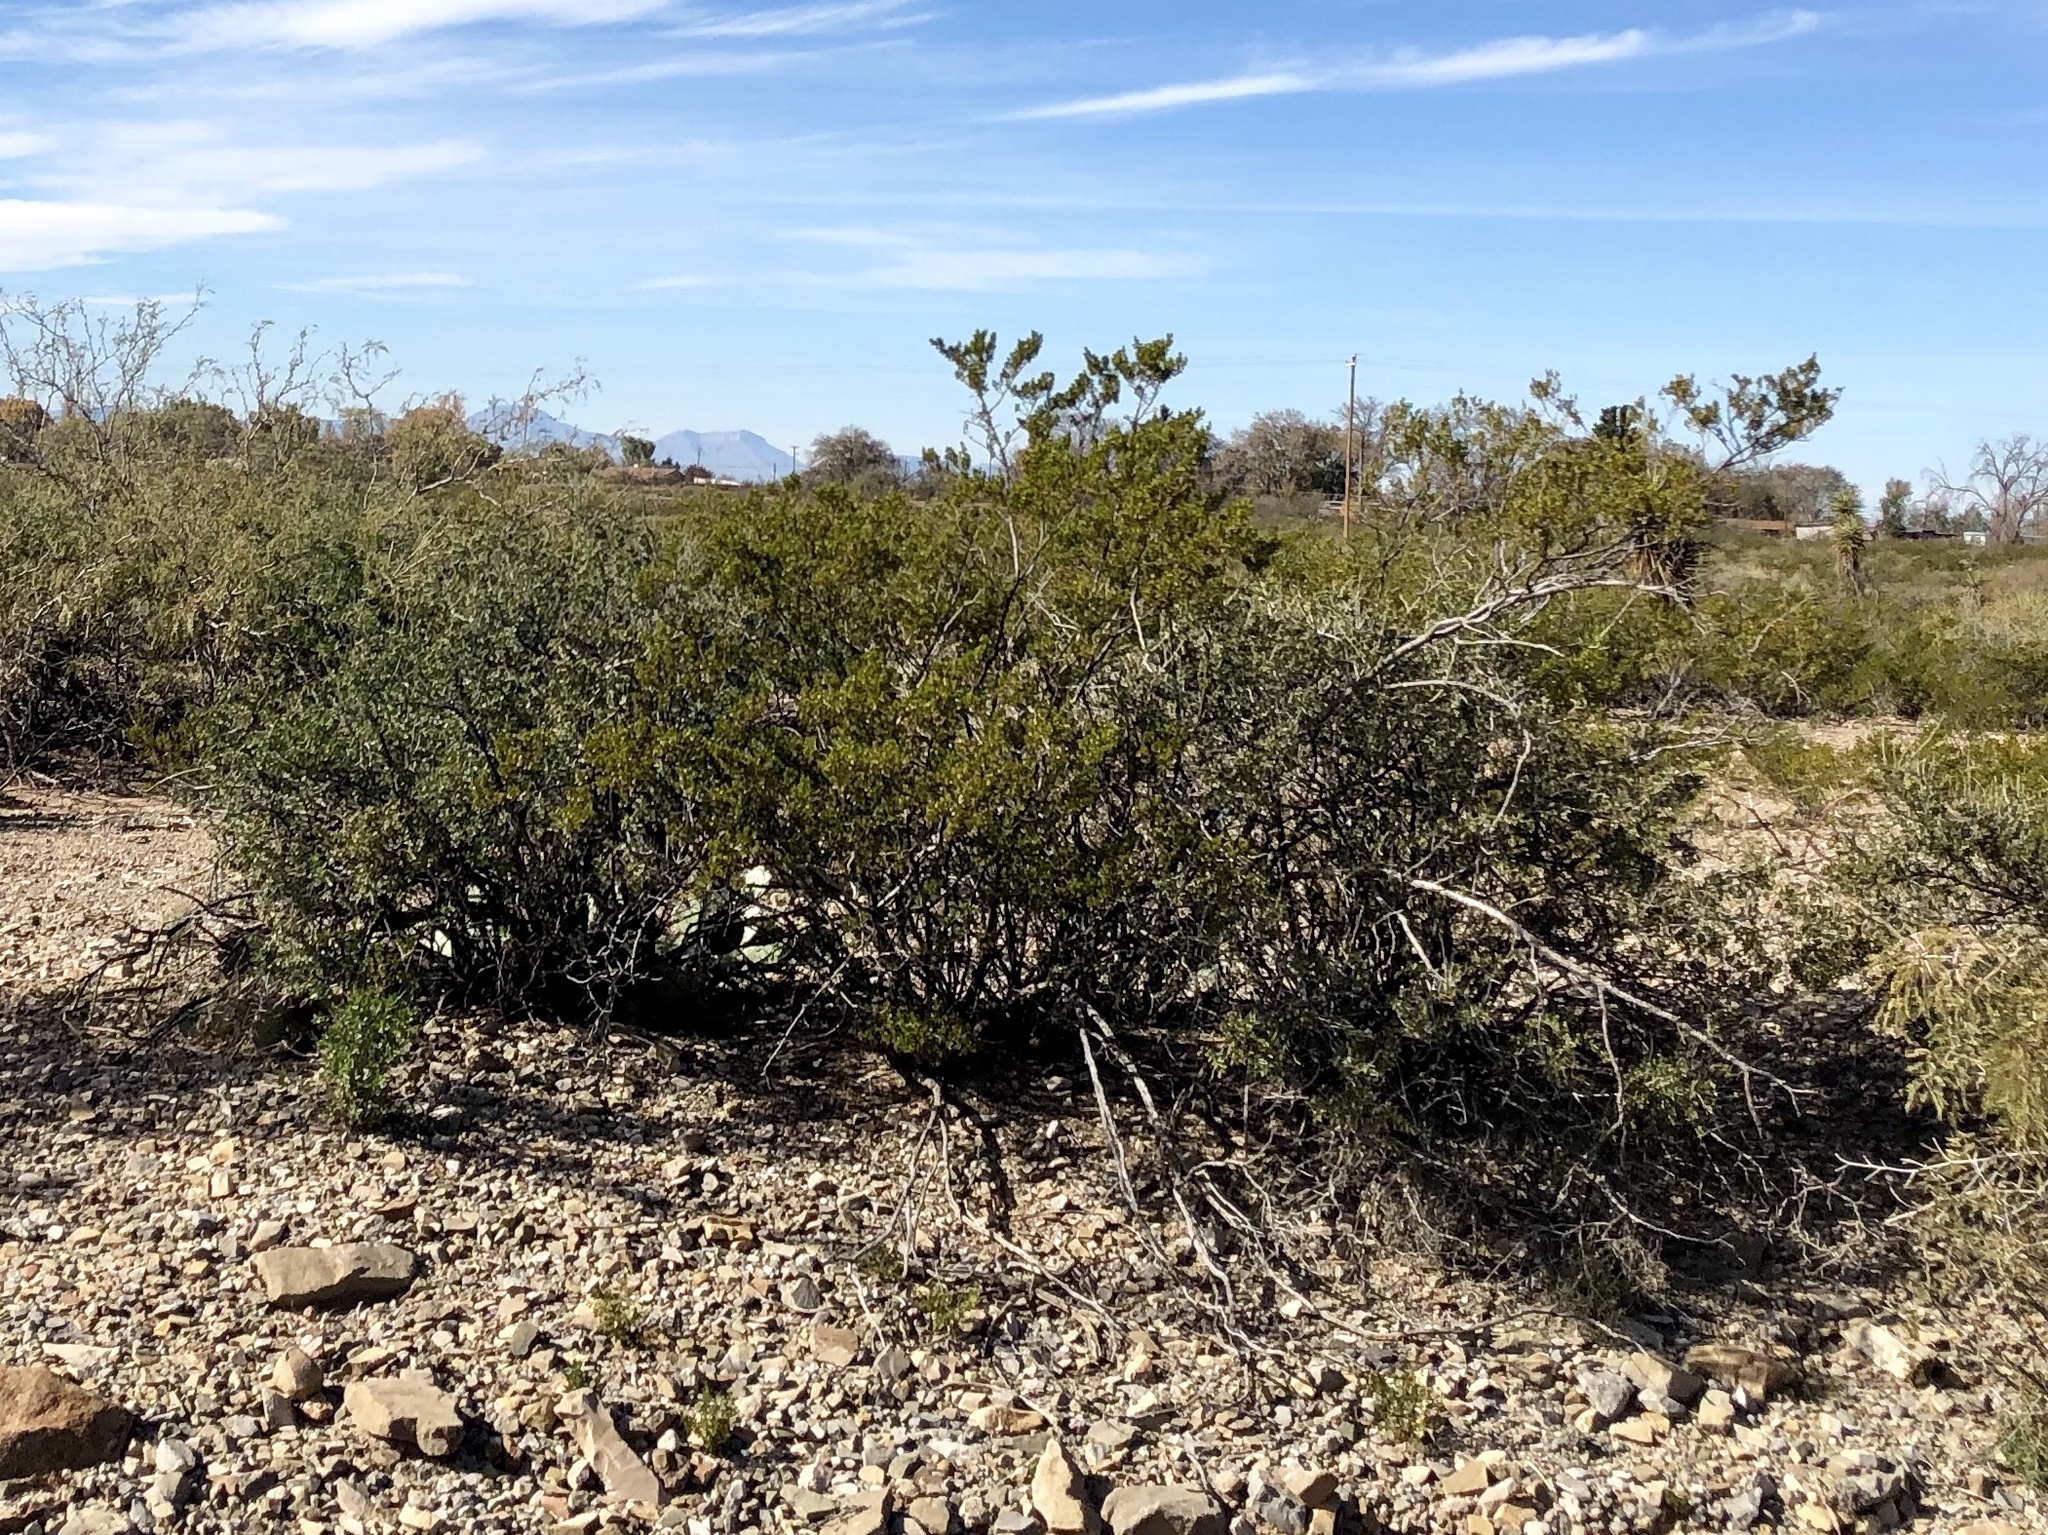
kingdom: Plantae
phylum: Tracheophyta
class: Magnoliopsida
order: Zygophyllales
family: Zygophyllaceae
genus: Larrea
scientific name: Larrea tridentata
